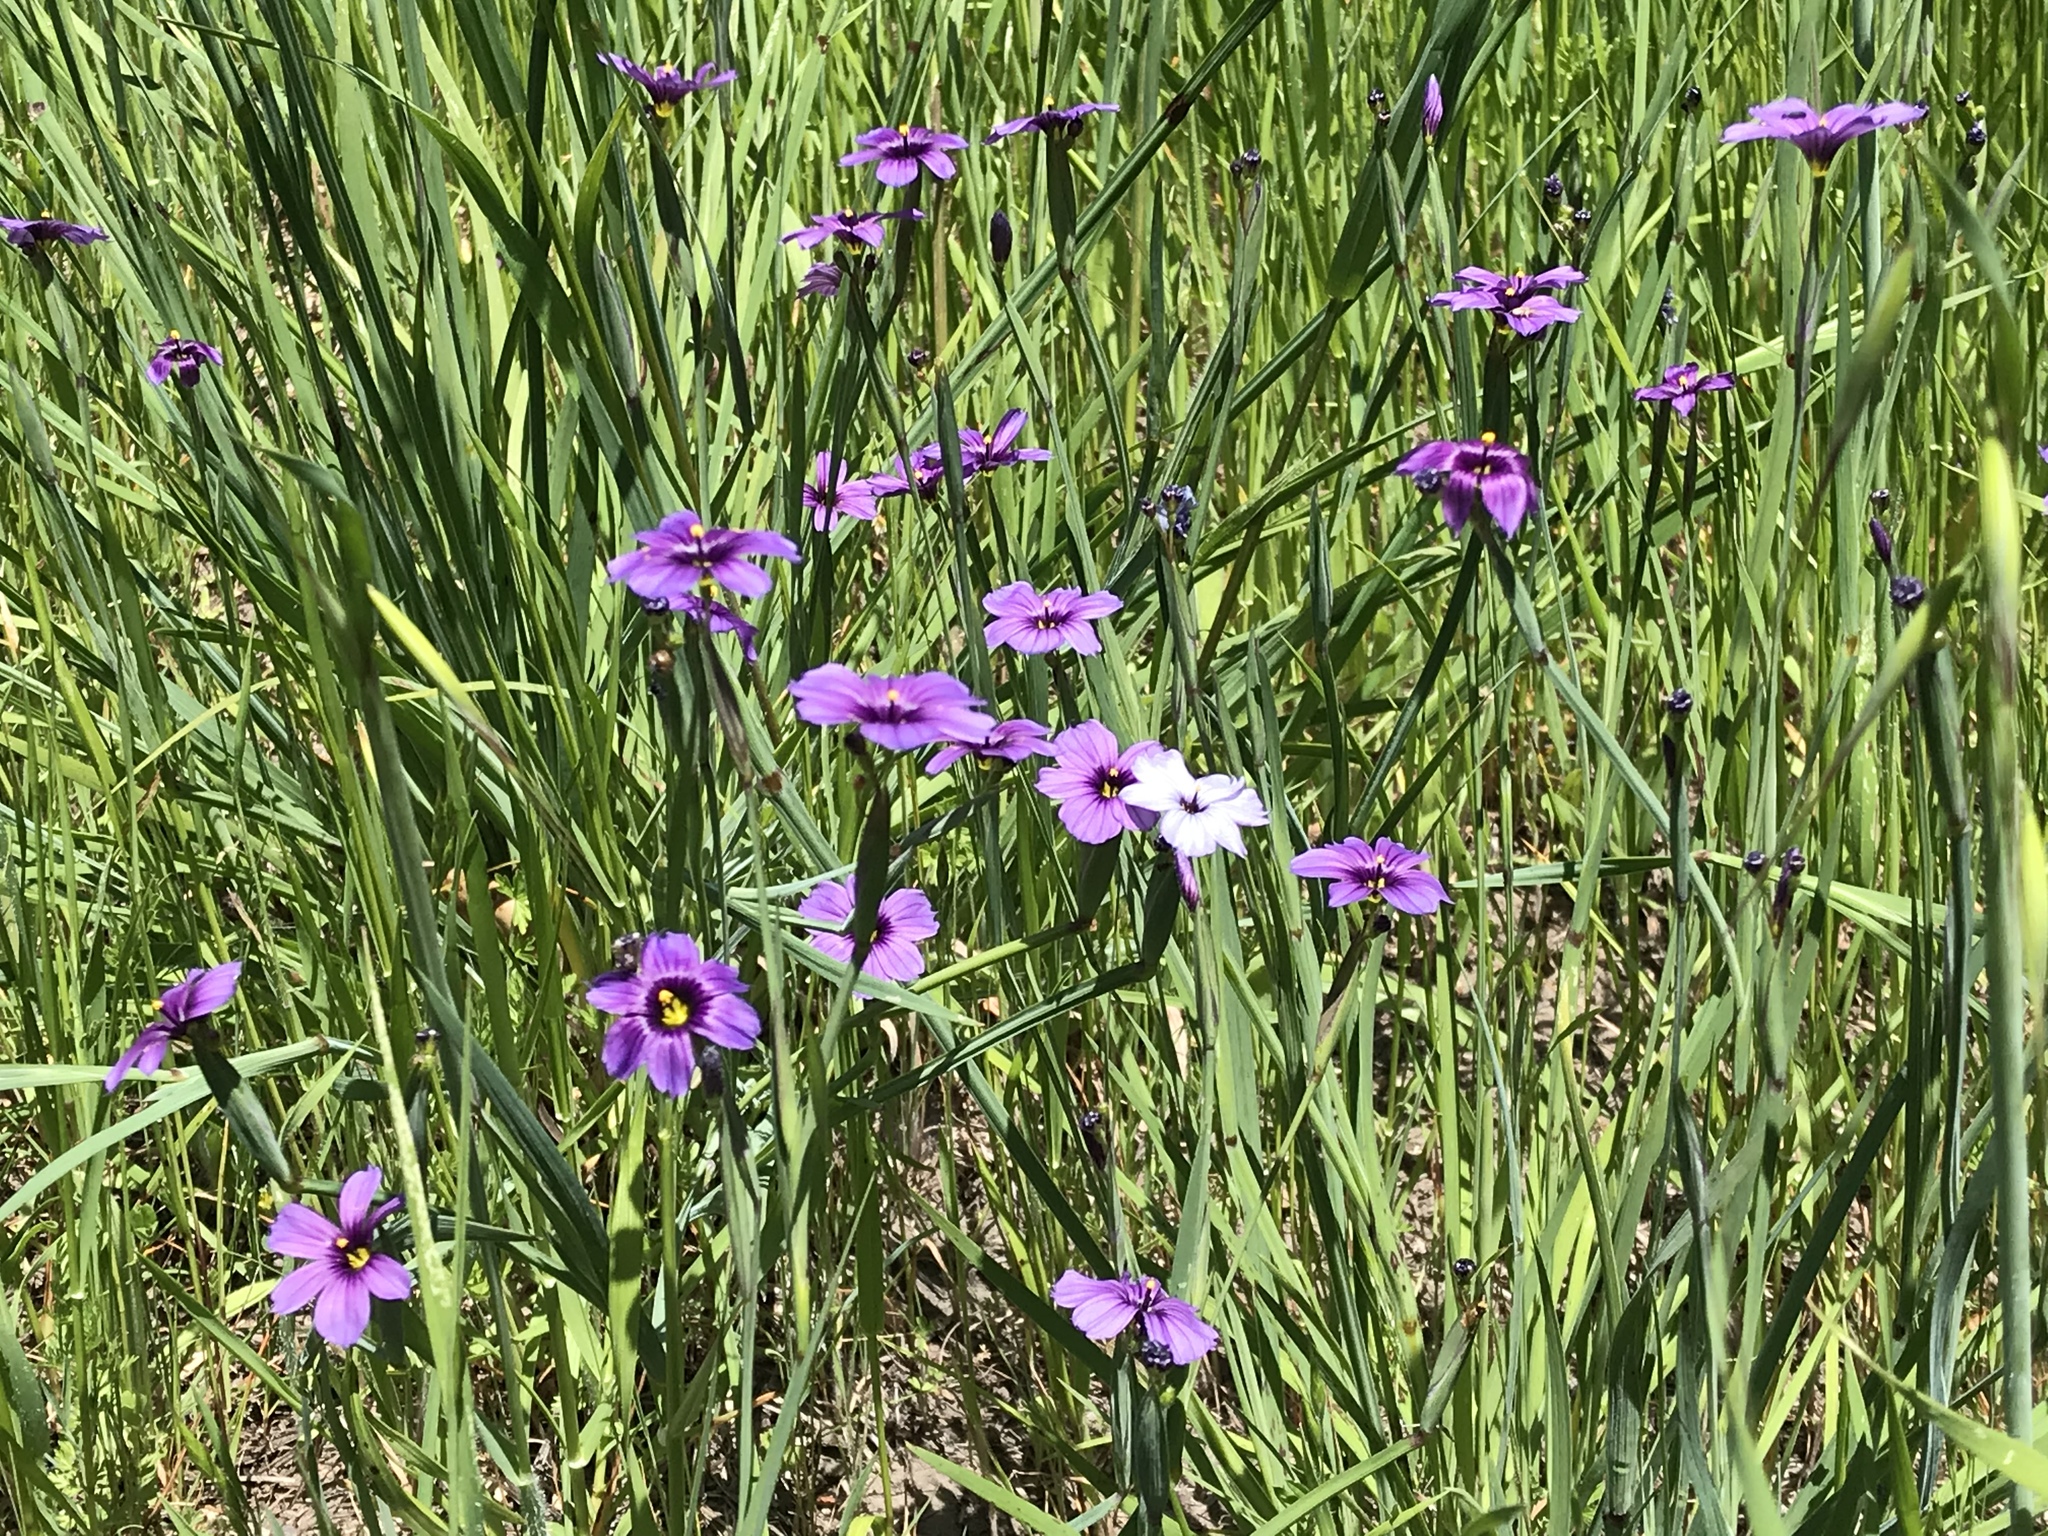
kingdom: Plantae
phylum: Tracheophyta
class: Liliopsida
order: Asparagales
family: Iridaceae
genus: Sisyrinchium
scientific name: Sisyrinchium bellum
